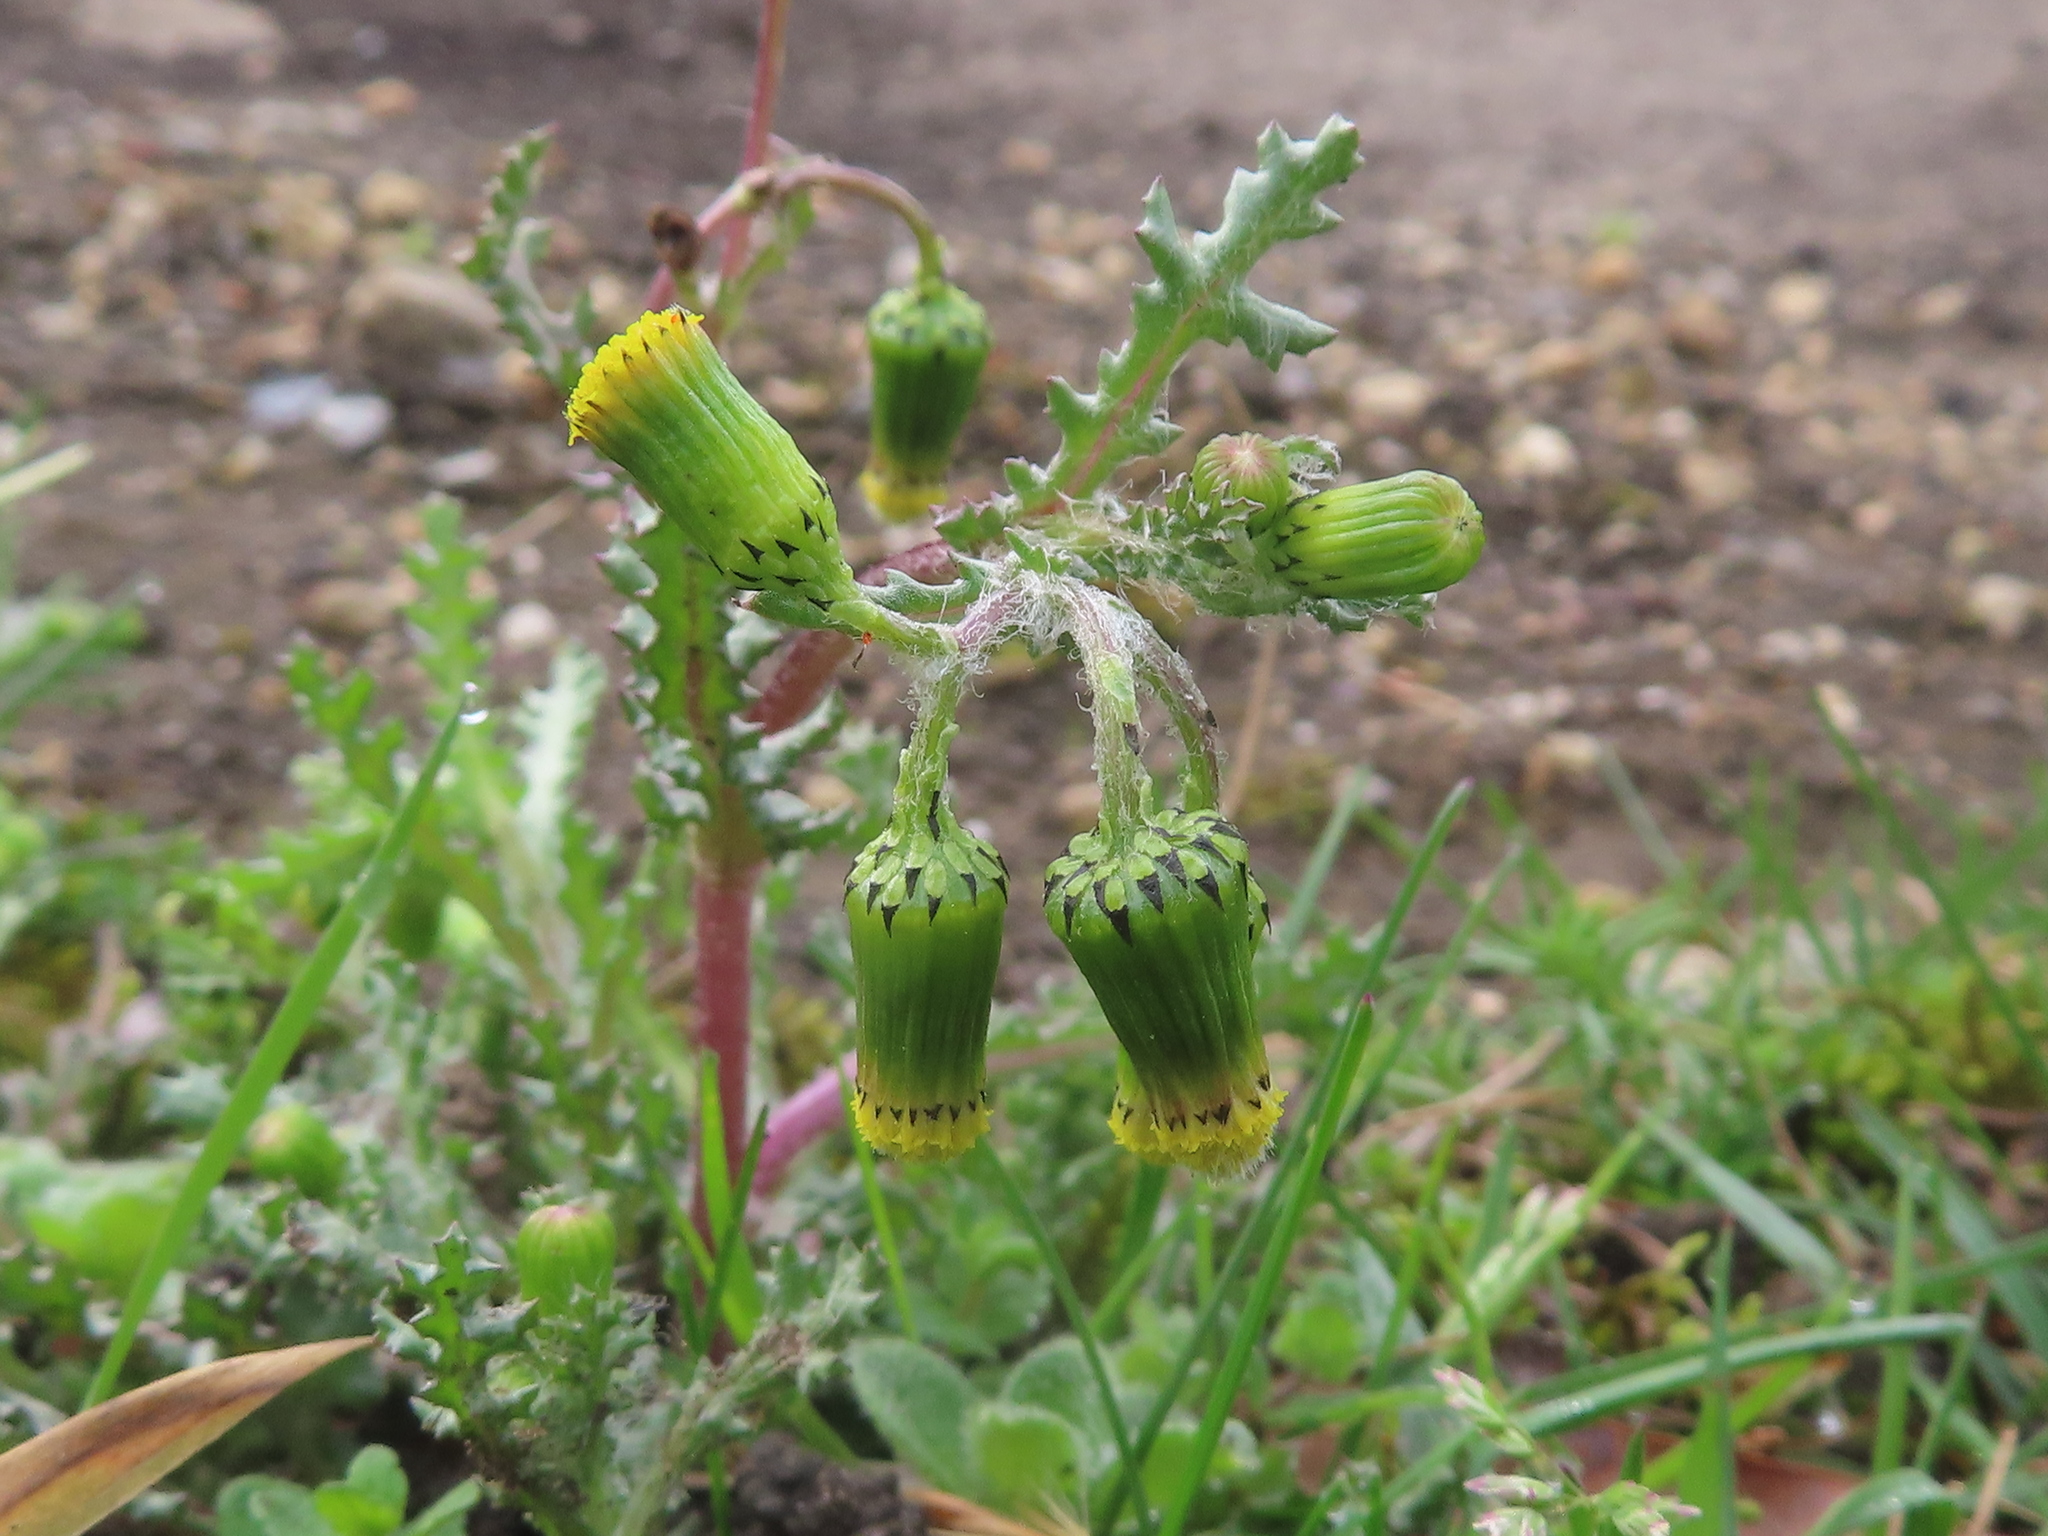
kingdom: Plantae
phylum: Tracheophyta
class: Magnoliopsida
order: Asterales
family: Asteraceae
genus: Senecio
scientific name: Senecio vulgaris
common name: Old-man-in-the-spring
